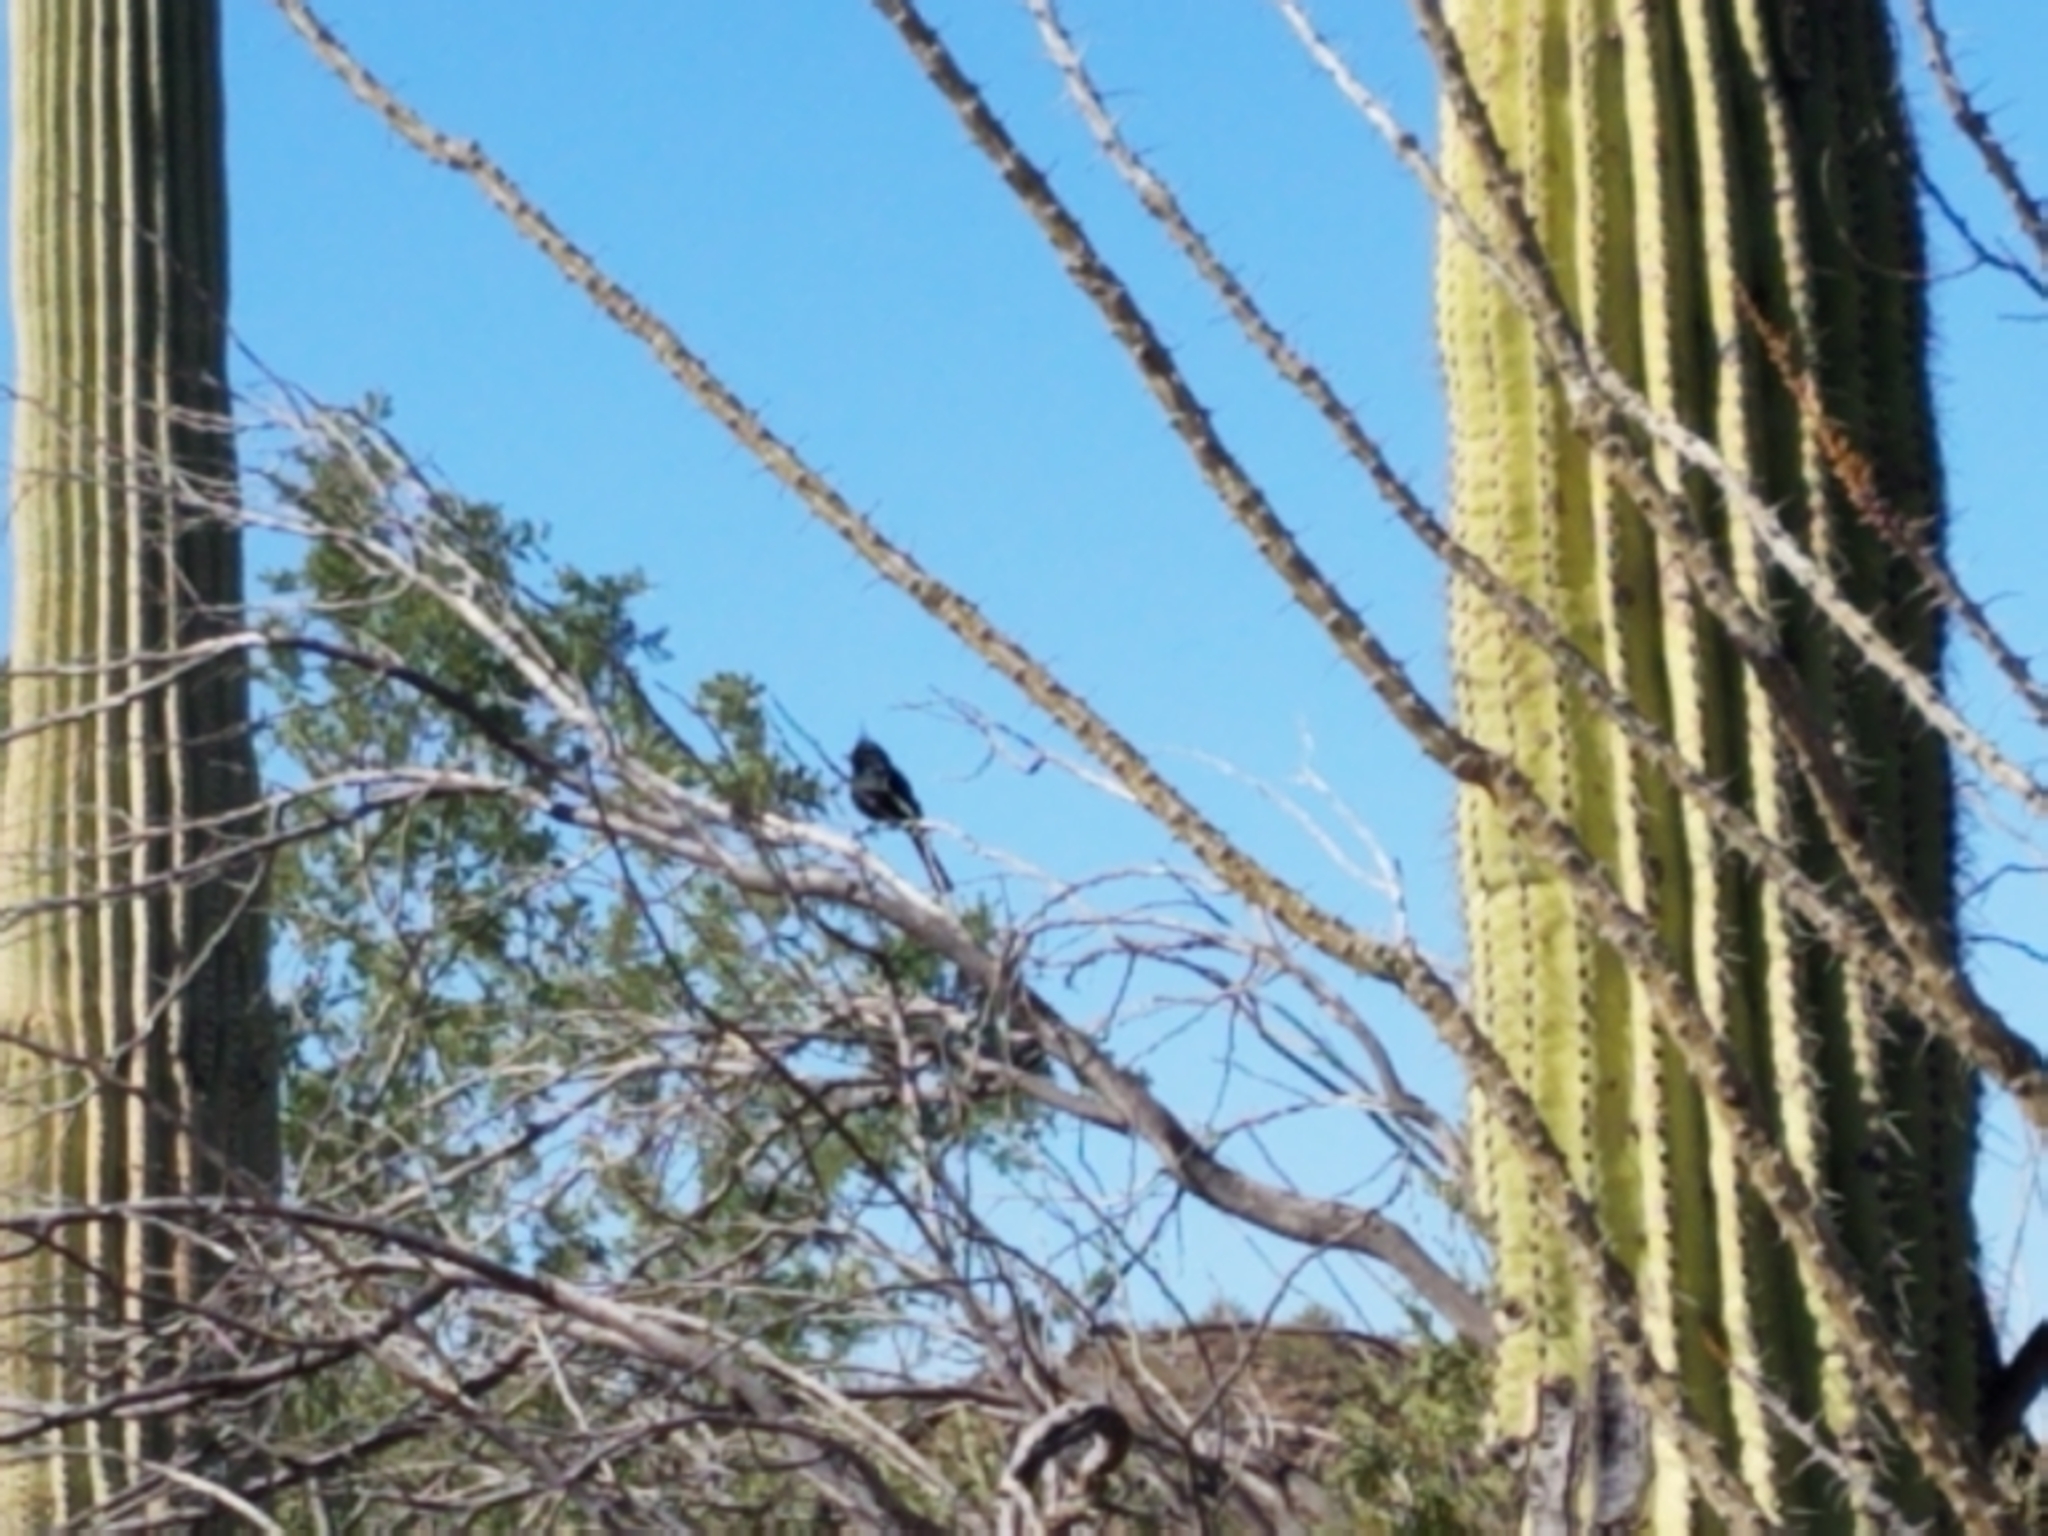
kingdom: Animalia
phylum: Chordata
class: Aves
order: Passeriformes
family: Ptilogonatidae
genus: Phainopepla
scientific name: Phainopepla nitens
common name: Phainopepla
